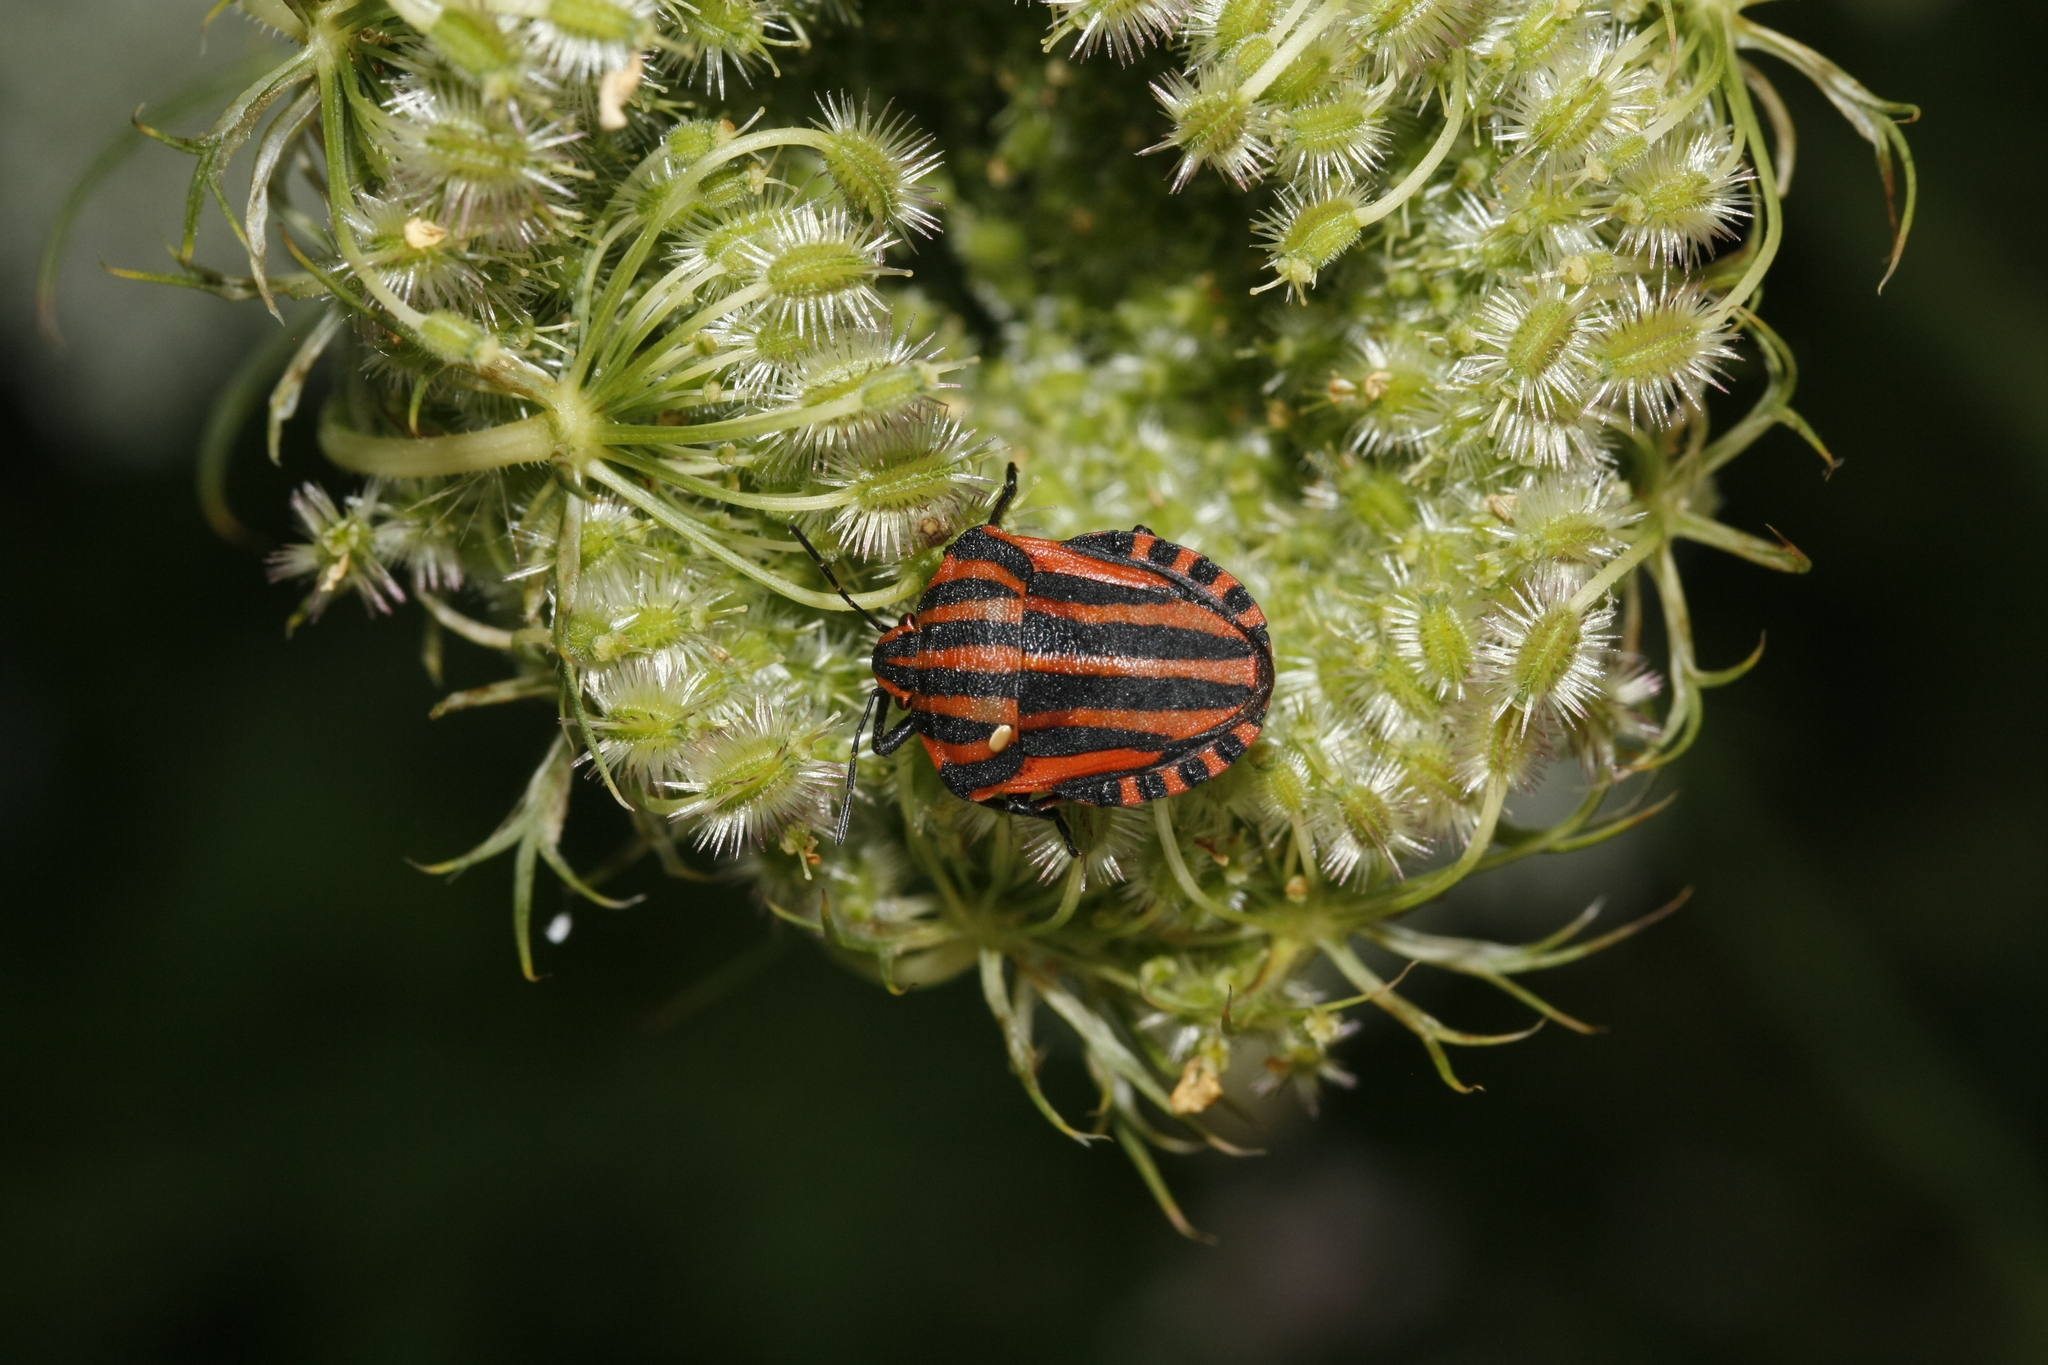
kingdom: Animalia
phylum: Arthropoda
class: Insecta
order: Hemiptera
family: Pentatomidae
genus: Graphosoma
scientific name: Graphosoma italicum
